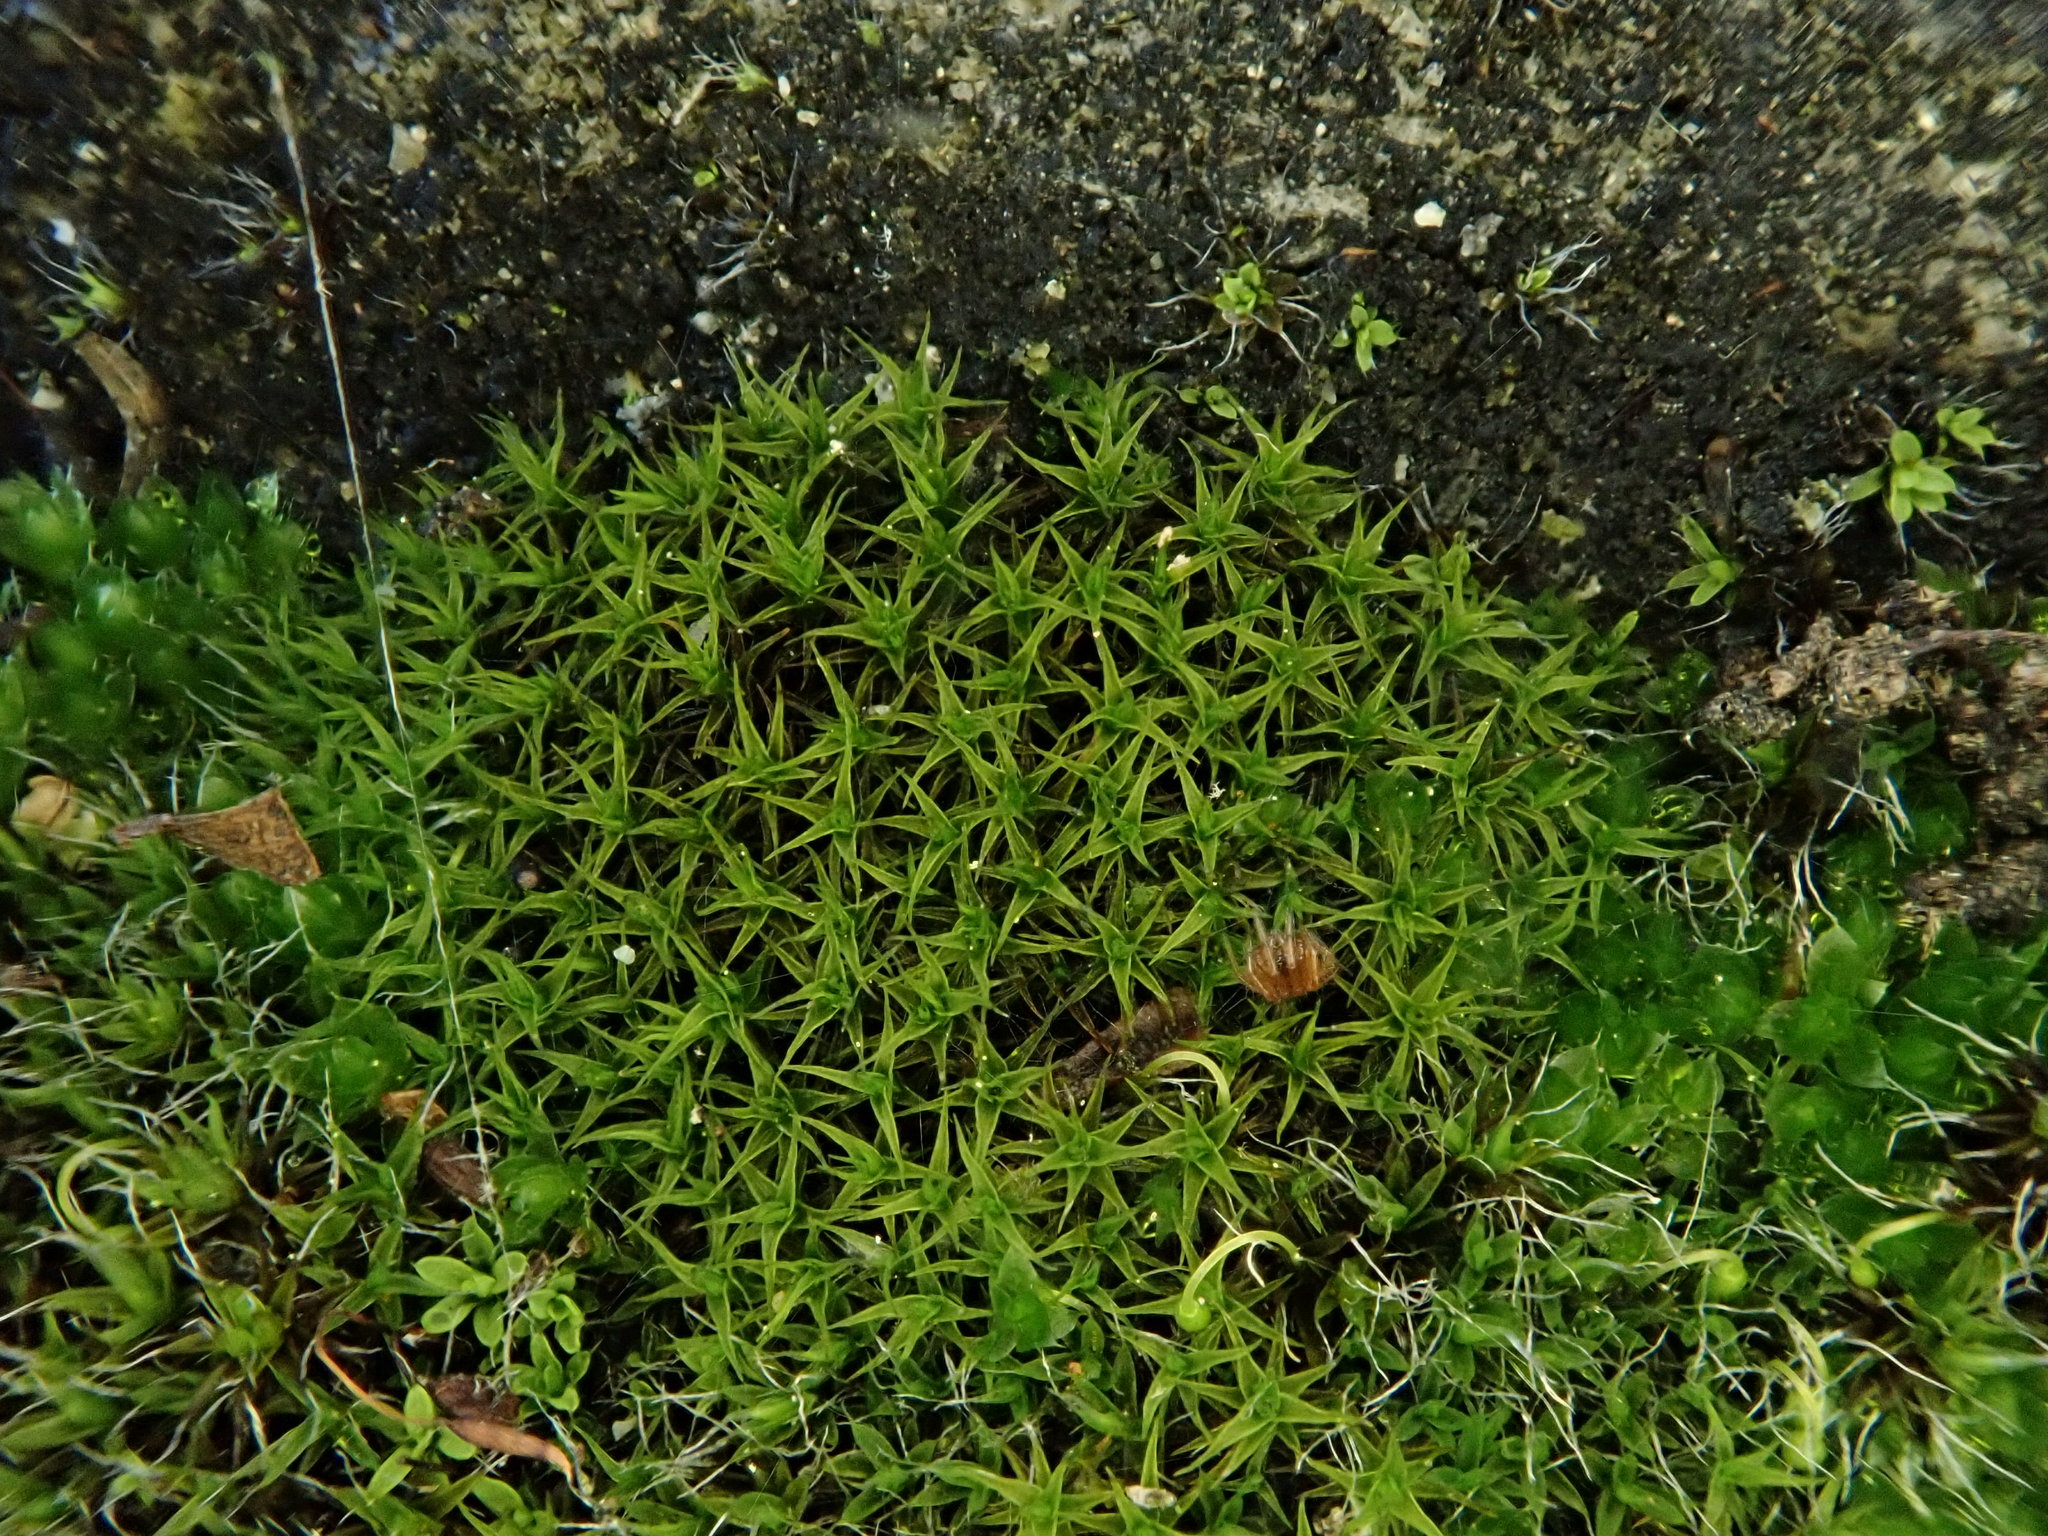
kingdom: Plantae
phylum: Bryophyta
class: Bryopsida
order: Pottiales
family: Pottiaceae
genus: Vinealobryum
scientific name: Vinealobryum vineale
